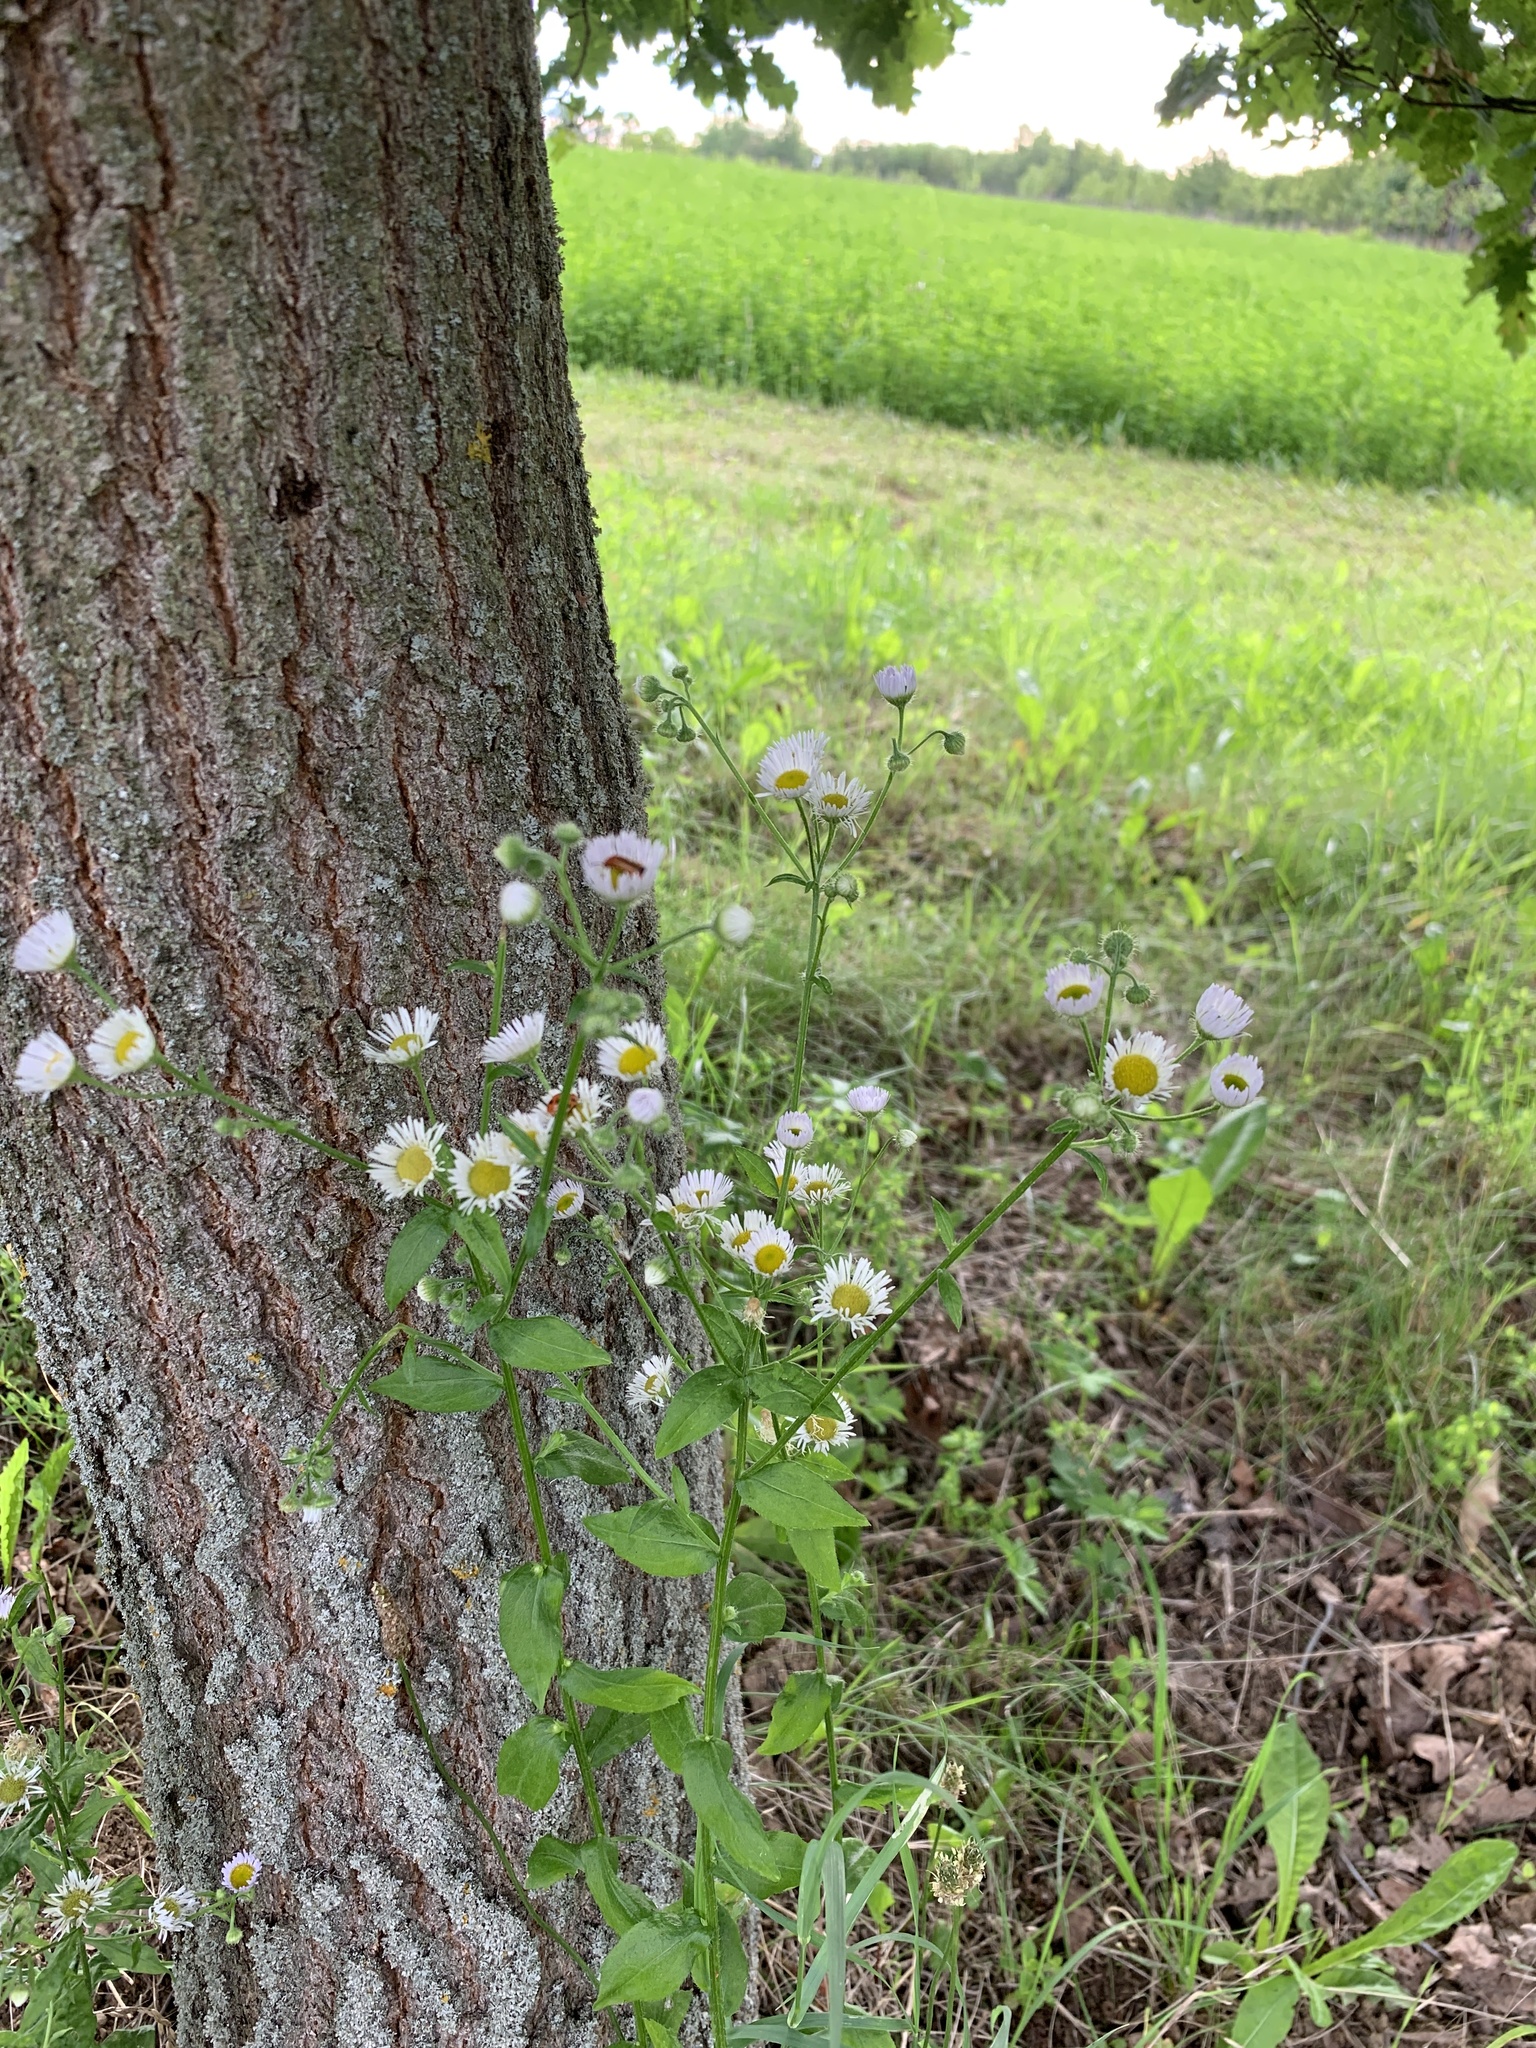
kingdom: Plantae
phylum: Tracheophyta
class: Magnoliopsida
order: Asterales
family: Asteraceae
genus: Erigeron
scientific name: Erigeron annuus
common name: Tall fleabane
